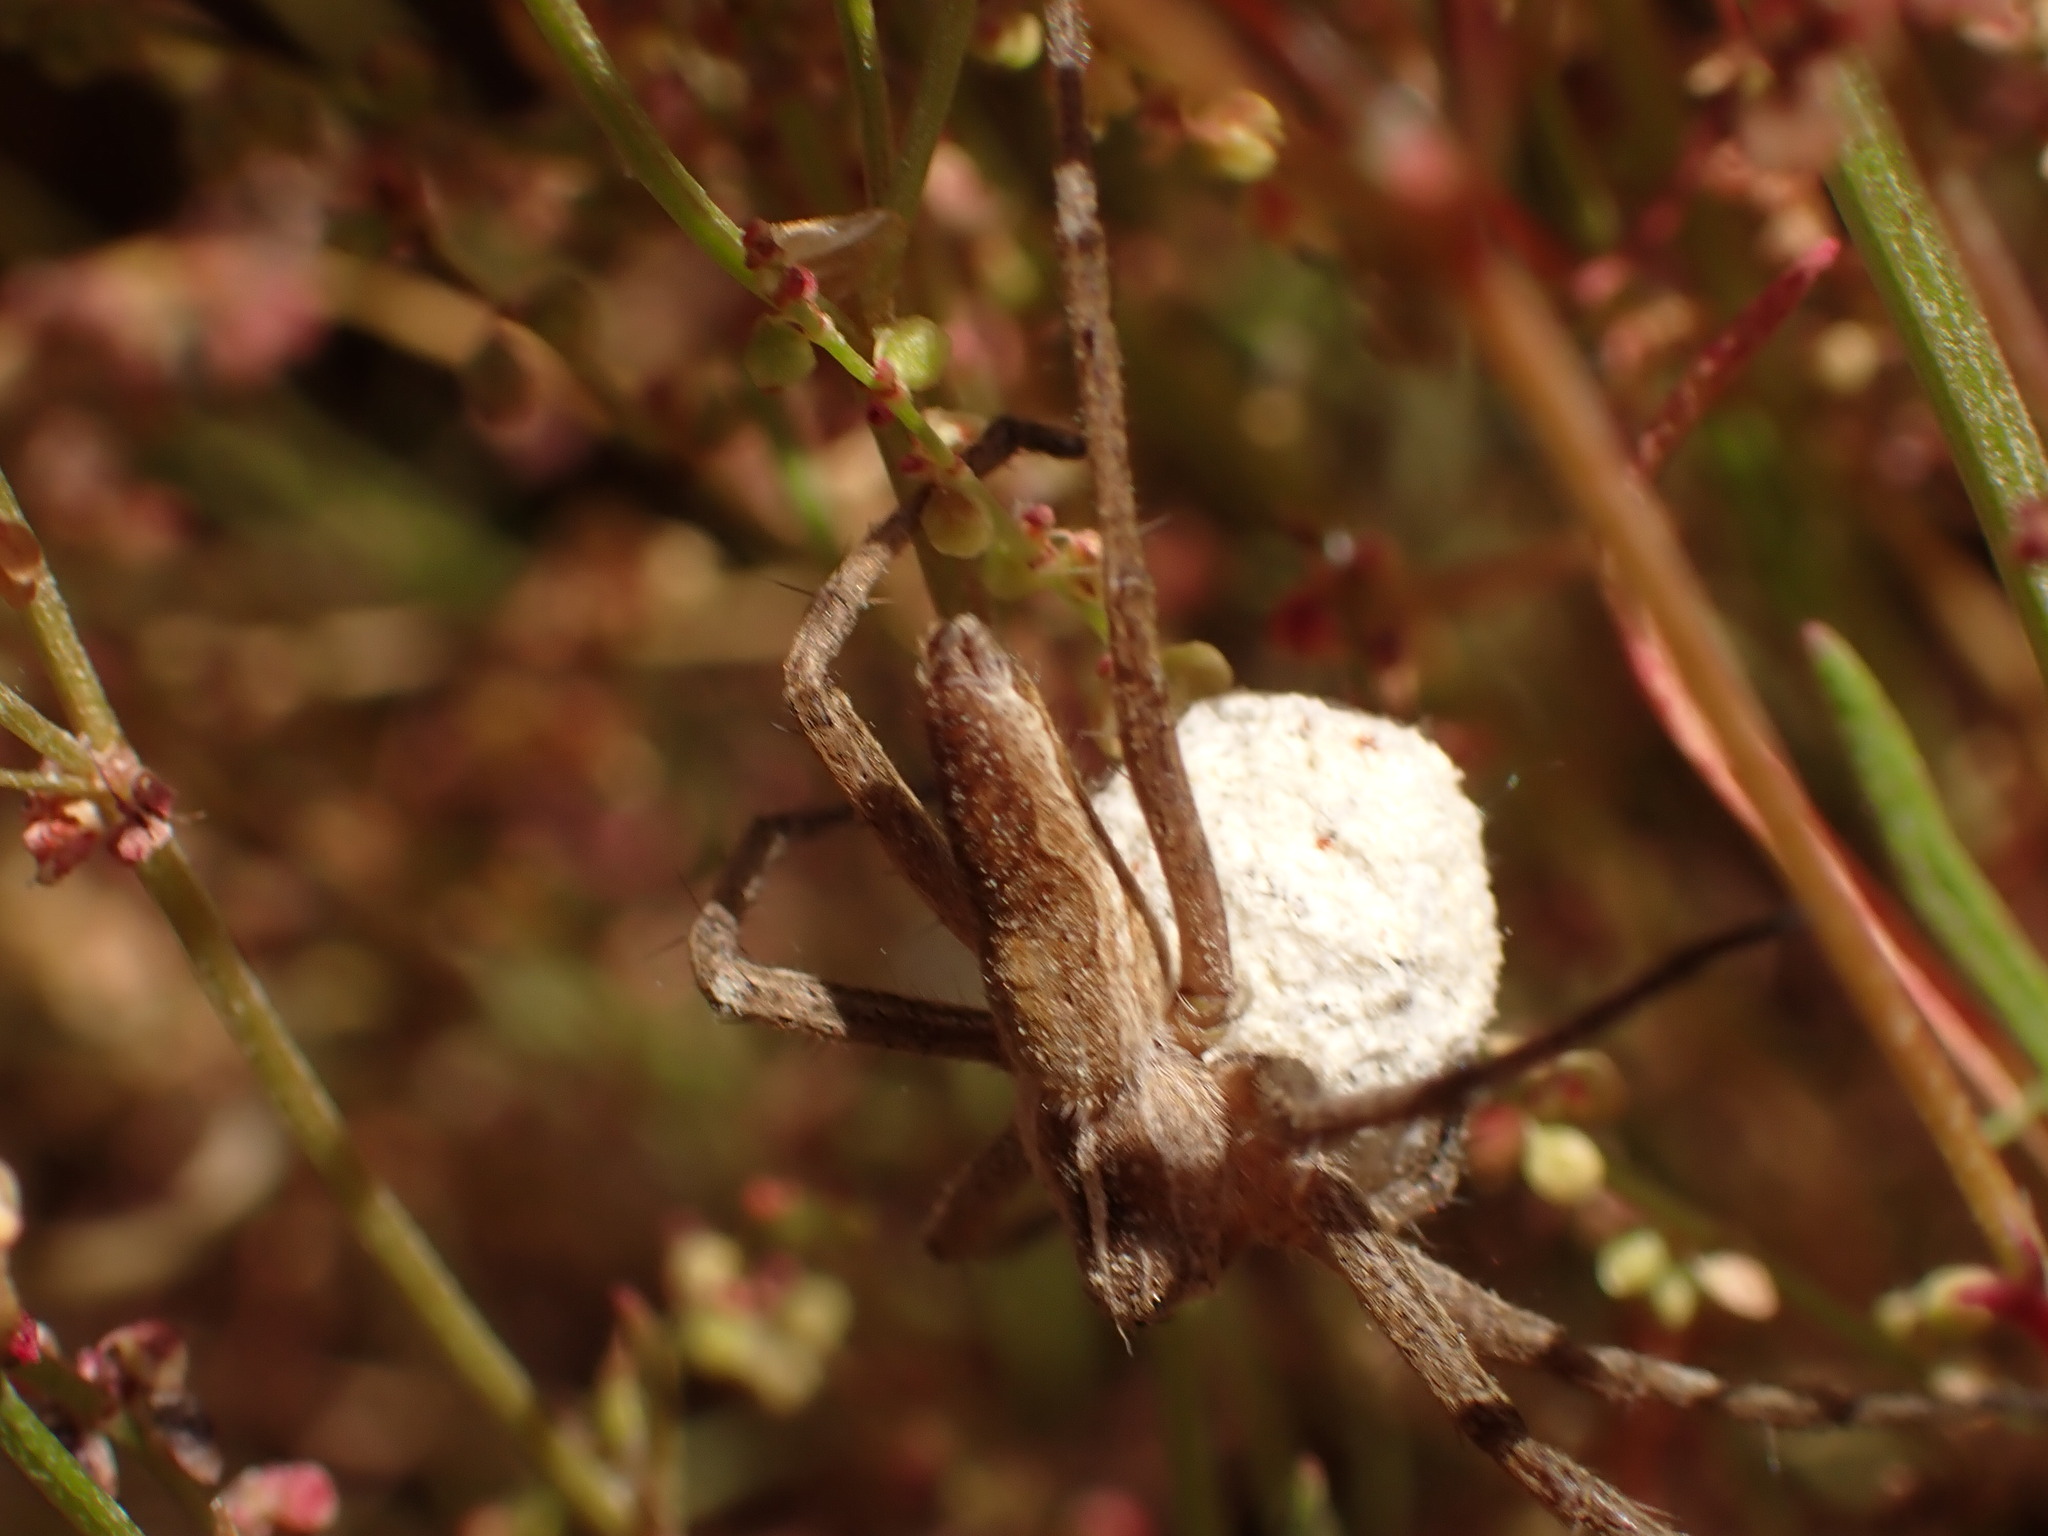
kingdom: Animalia
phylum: Arthropoda
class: Arachnida
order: Araneae
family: Pisauridae
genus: Pisaura
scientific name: Pisaura mirabilis
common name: Tent spider
